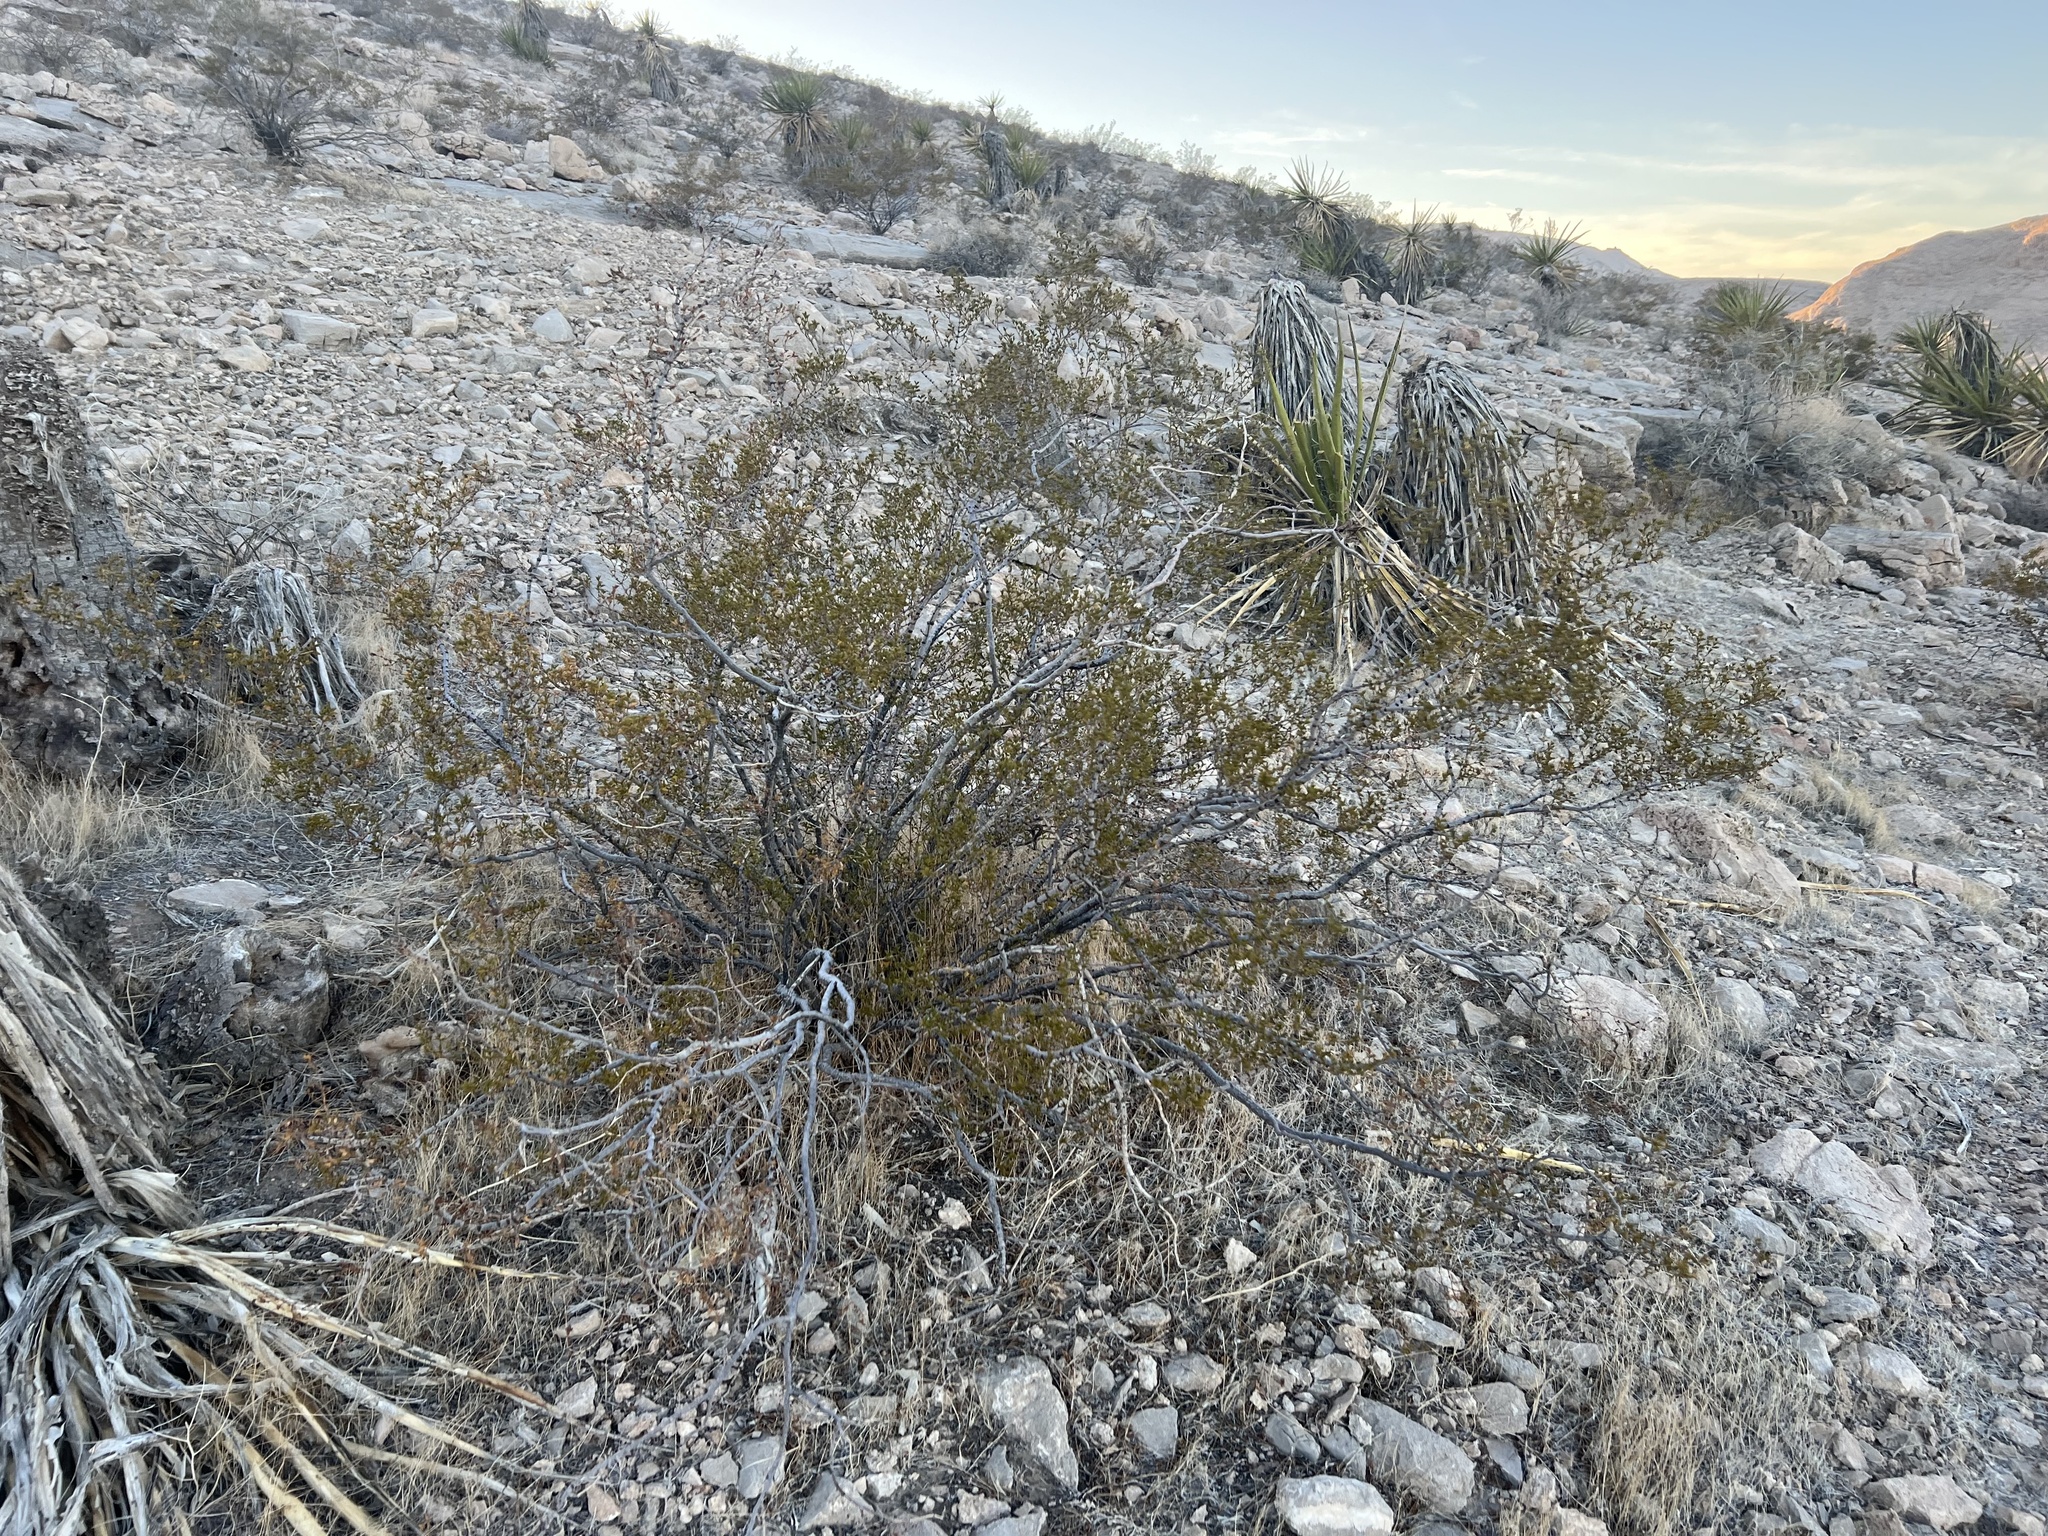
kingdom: Plantae
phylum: Tracheophyta
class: Magnoliopsida
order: Zygophyllales
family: Zygophyllaceae
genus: Larrea
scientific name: Larrea tridentata
